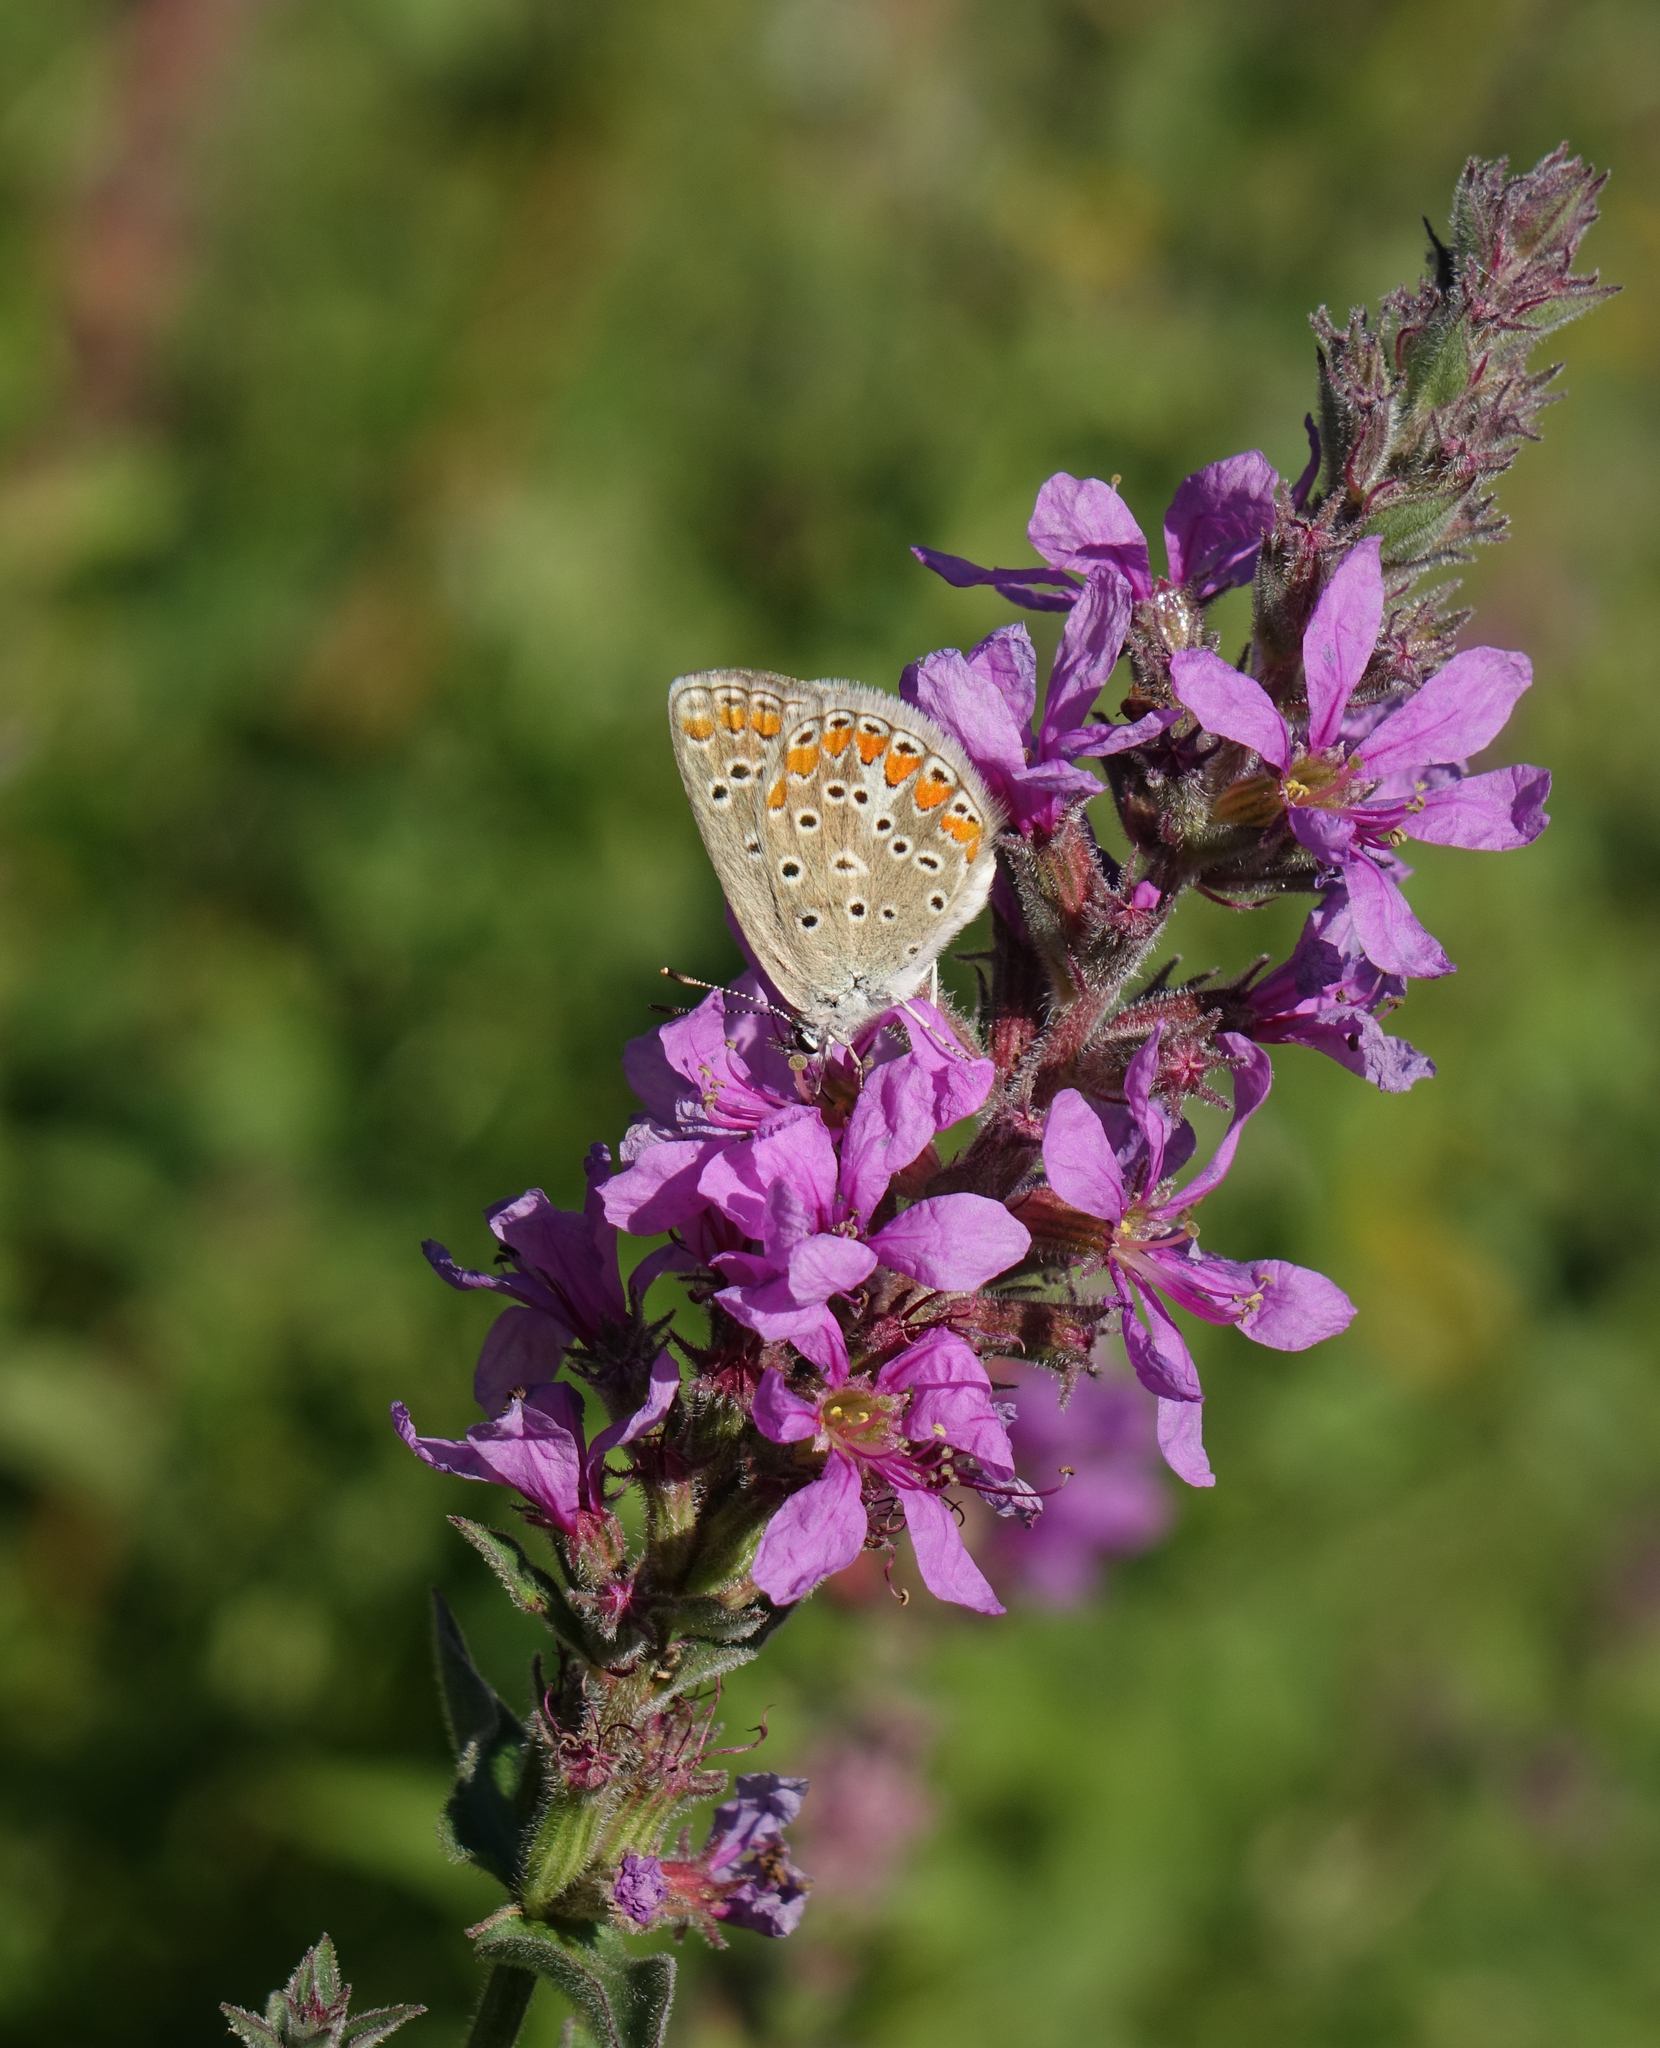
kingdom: Plantae
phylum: Tracheophyta
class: Magnoliopsida
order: Myrtales
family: Lythraceae
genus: Lythrum
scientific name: Lythrum salicaria
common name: Purple loosestrife
